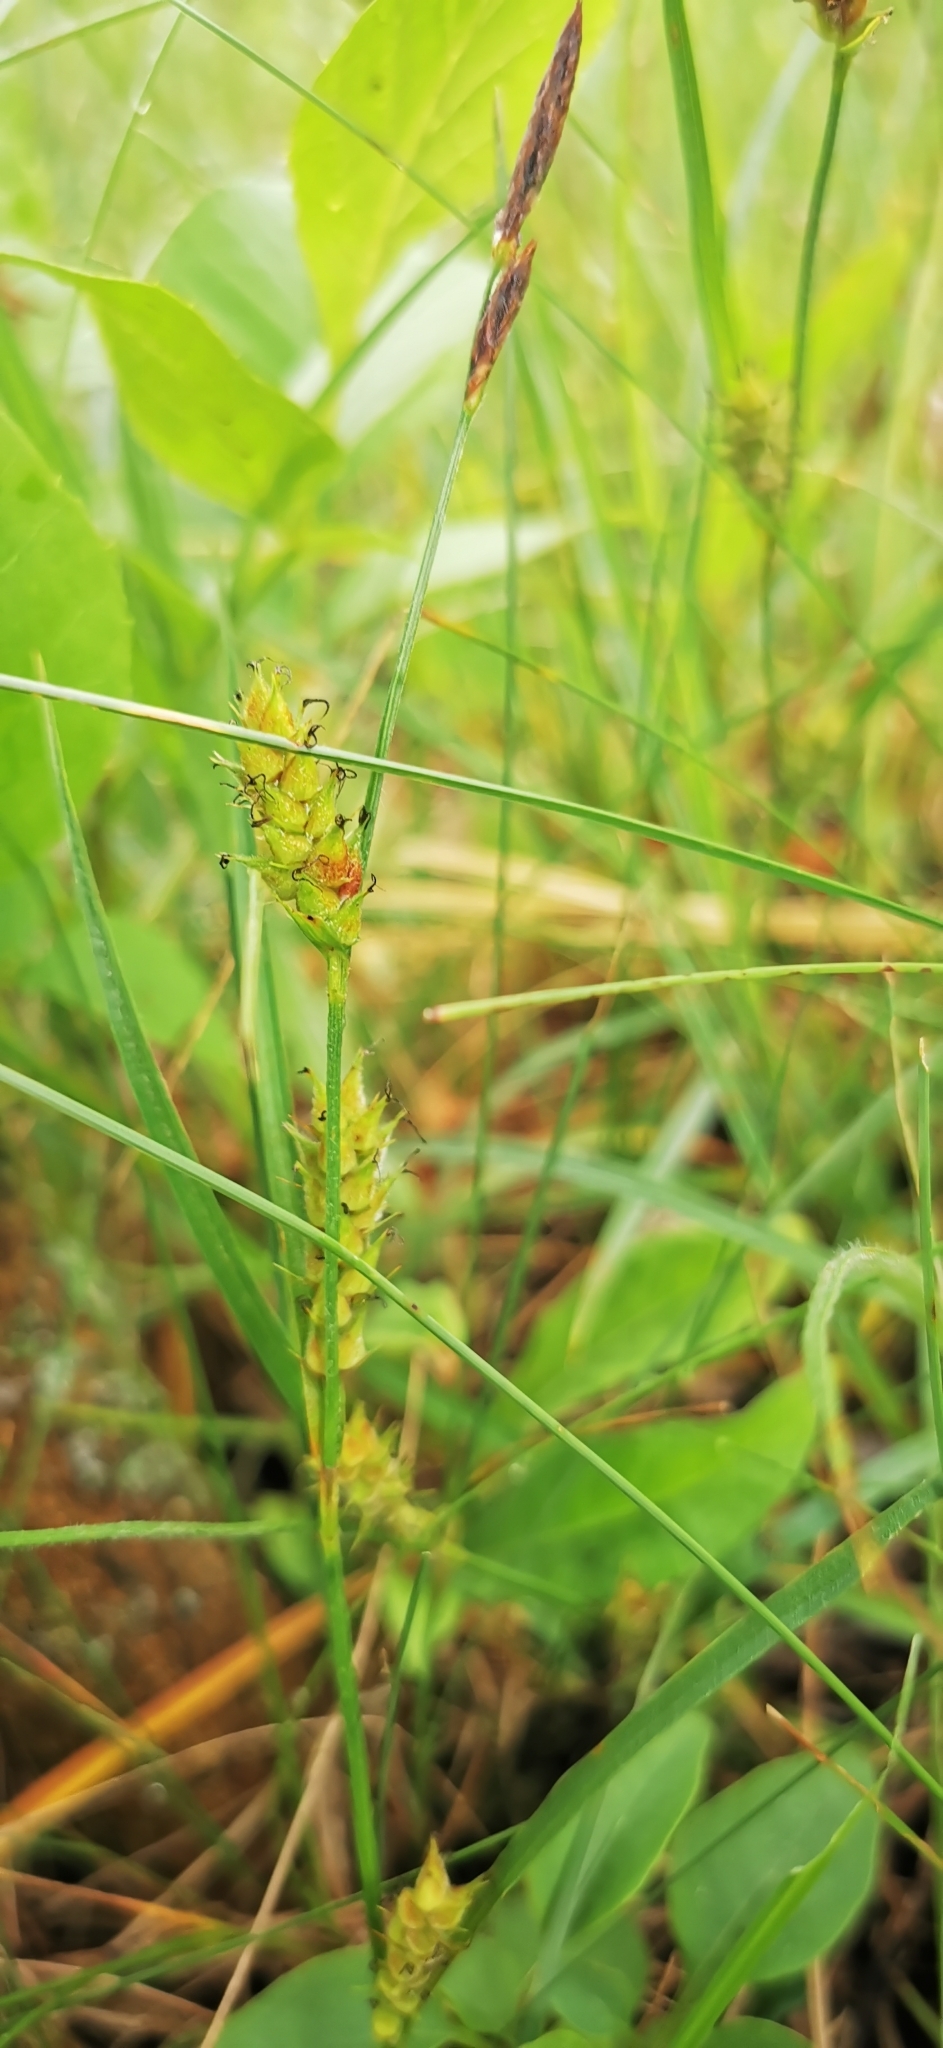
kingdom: Plantae
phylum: Tracheophyta
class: Liliopsida
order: Poales
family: Cyperaceae
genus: Carex
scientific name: Carex hirta
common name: Hairy sedge
